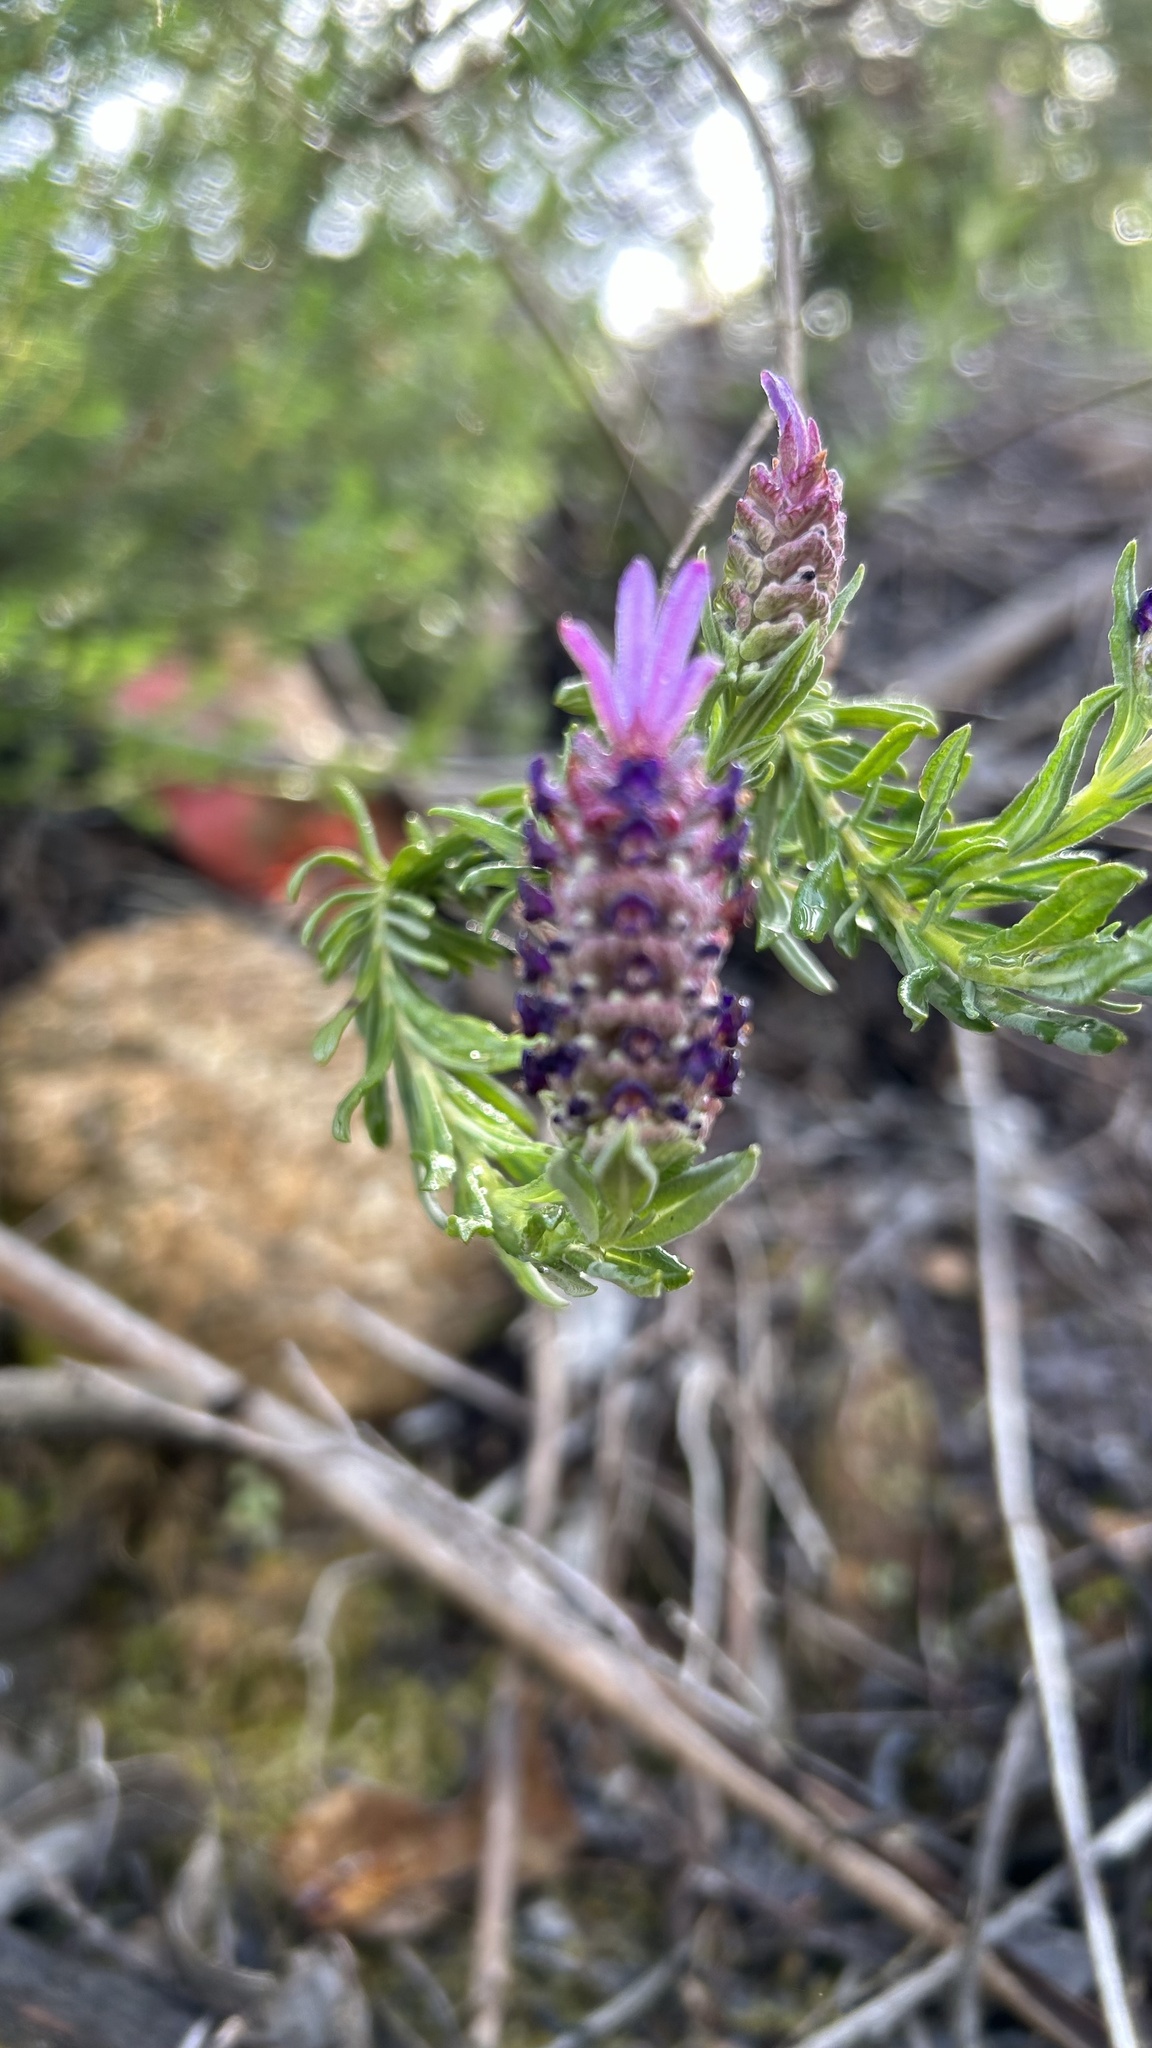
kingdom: Plantae
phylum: Tracheophyta
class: Magnoliopsida
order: Lamiales
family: Lamiaceae
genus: Lavandula
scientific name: Lavandula stoechas
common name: French lavender
